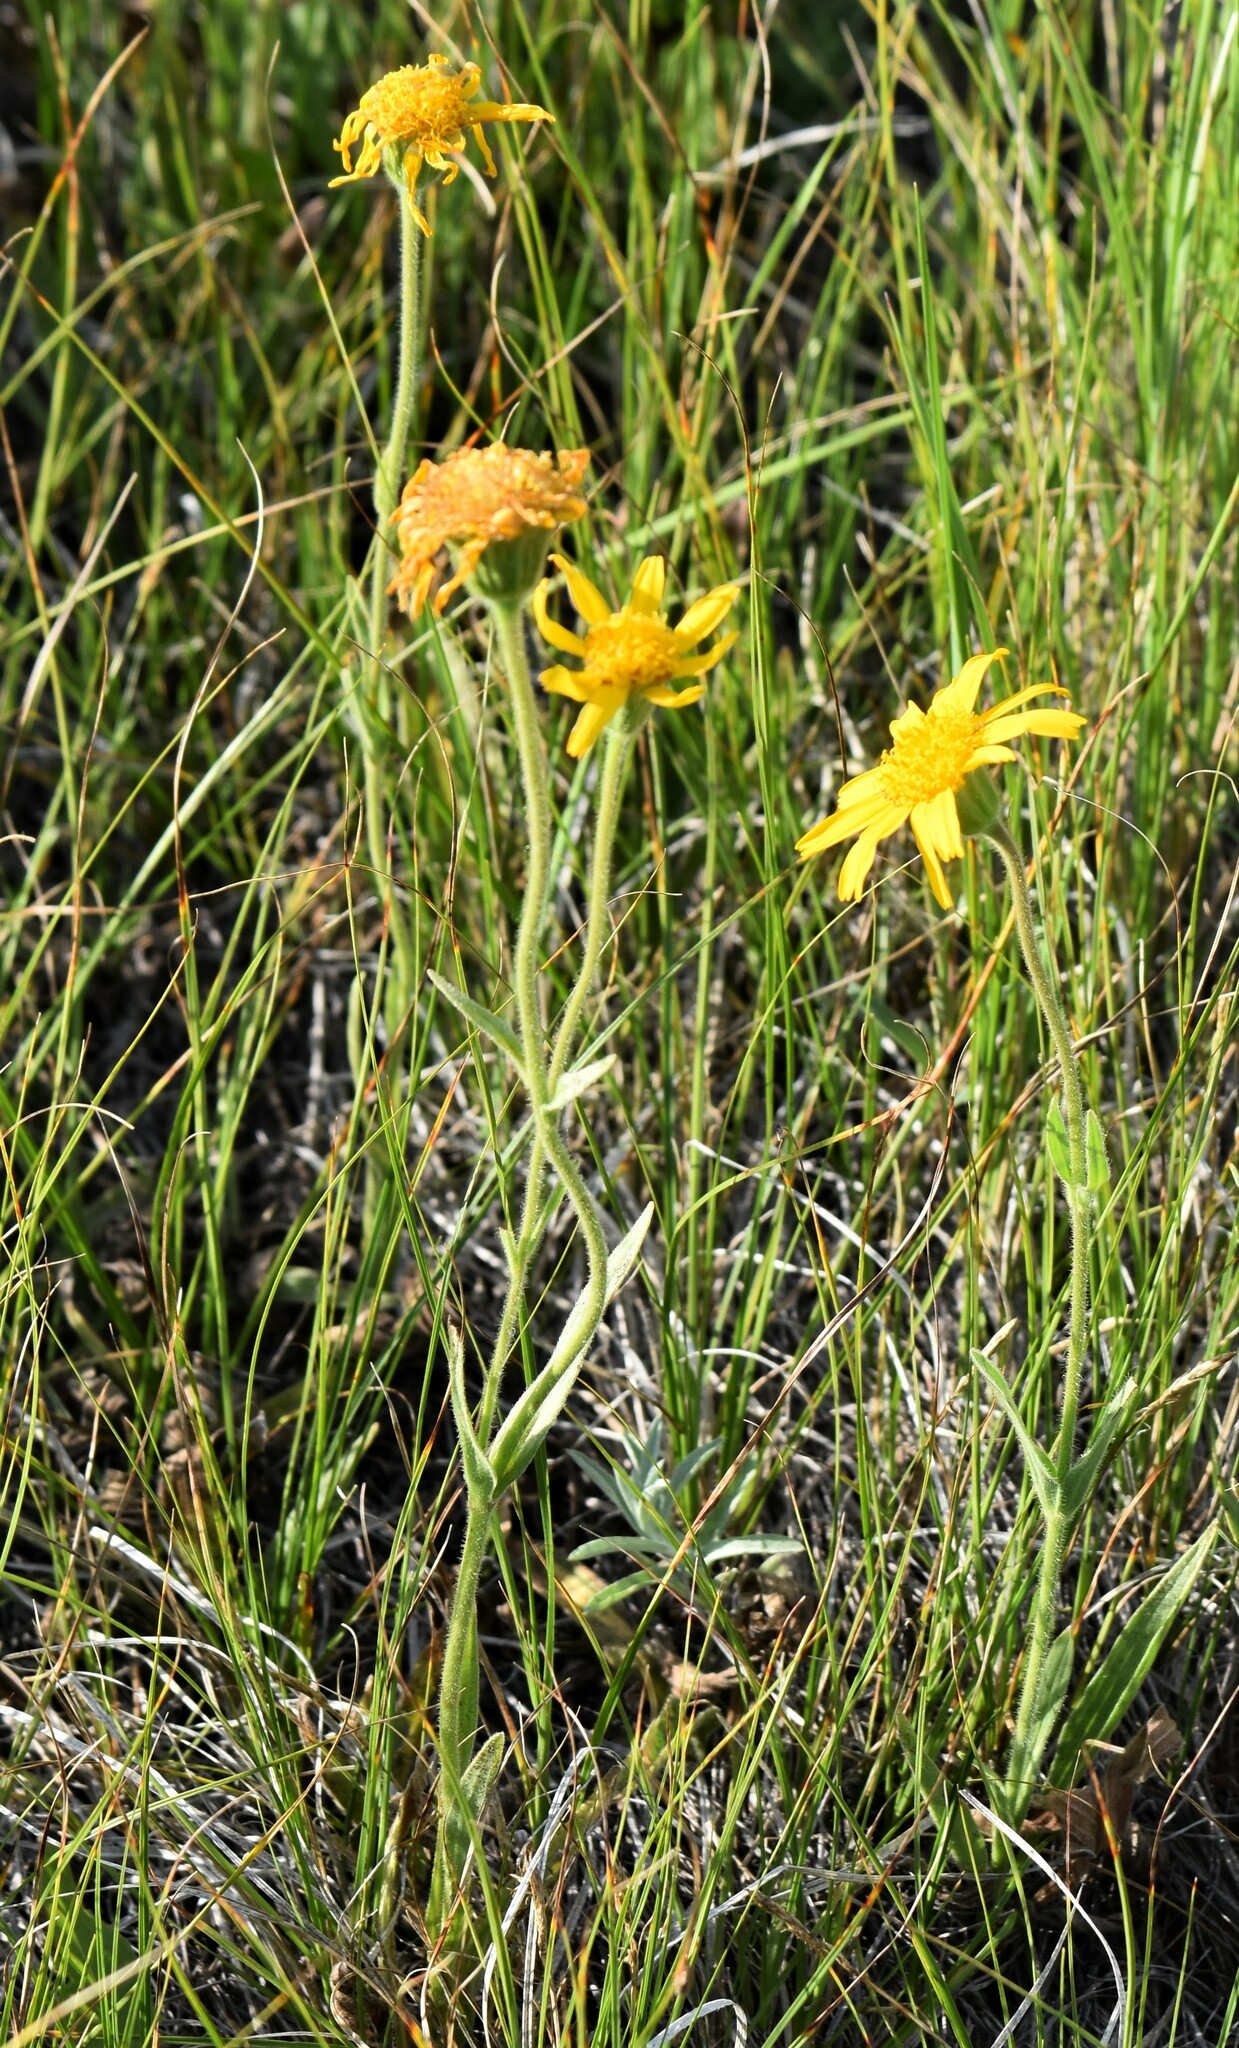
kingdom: Plantae
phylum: Tracheophyta
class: Magnoliopsida
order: Asterales
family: Asteraceae
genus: Arnica
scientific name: Arnica fulgens
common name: Foothill arnica
